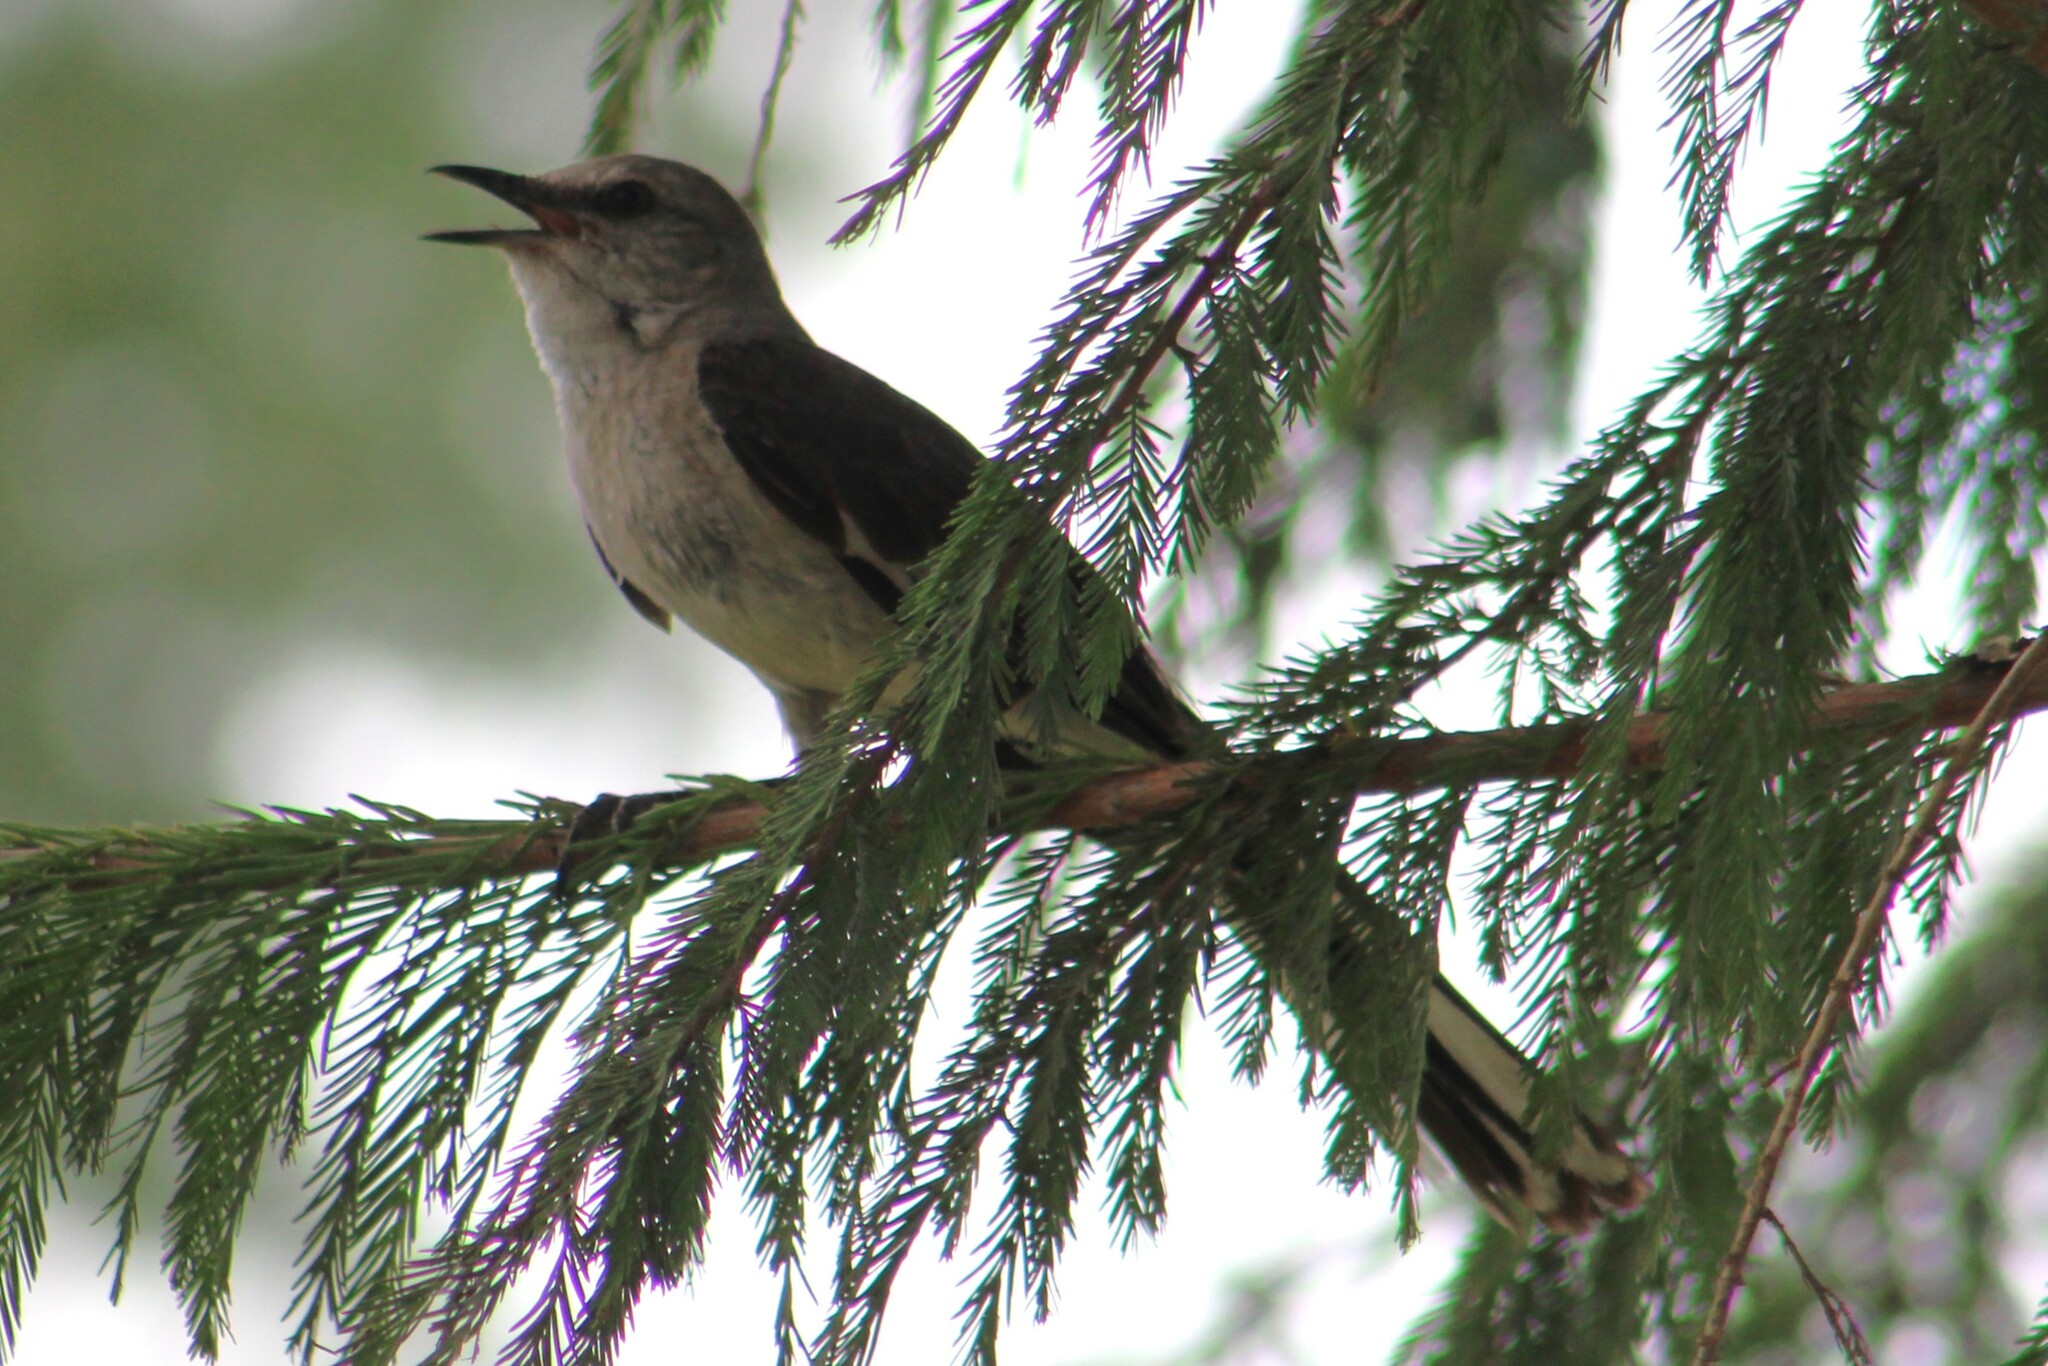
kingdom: Animalia
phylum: Chordata
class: Aves
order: Passeriformes
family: Mimidae
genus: Mimus
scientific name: Mimus polyglottos
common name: Northern mockingbird
